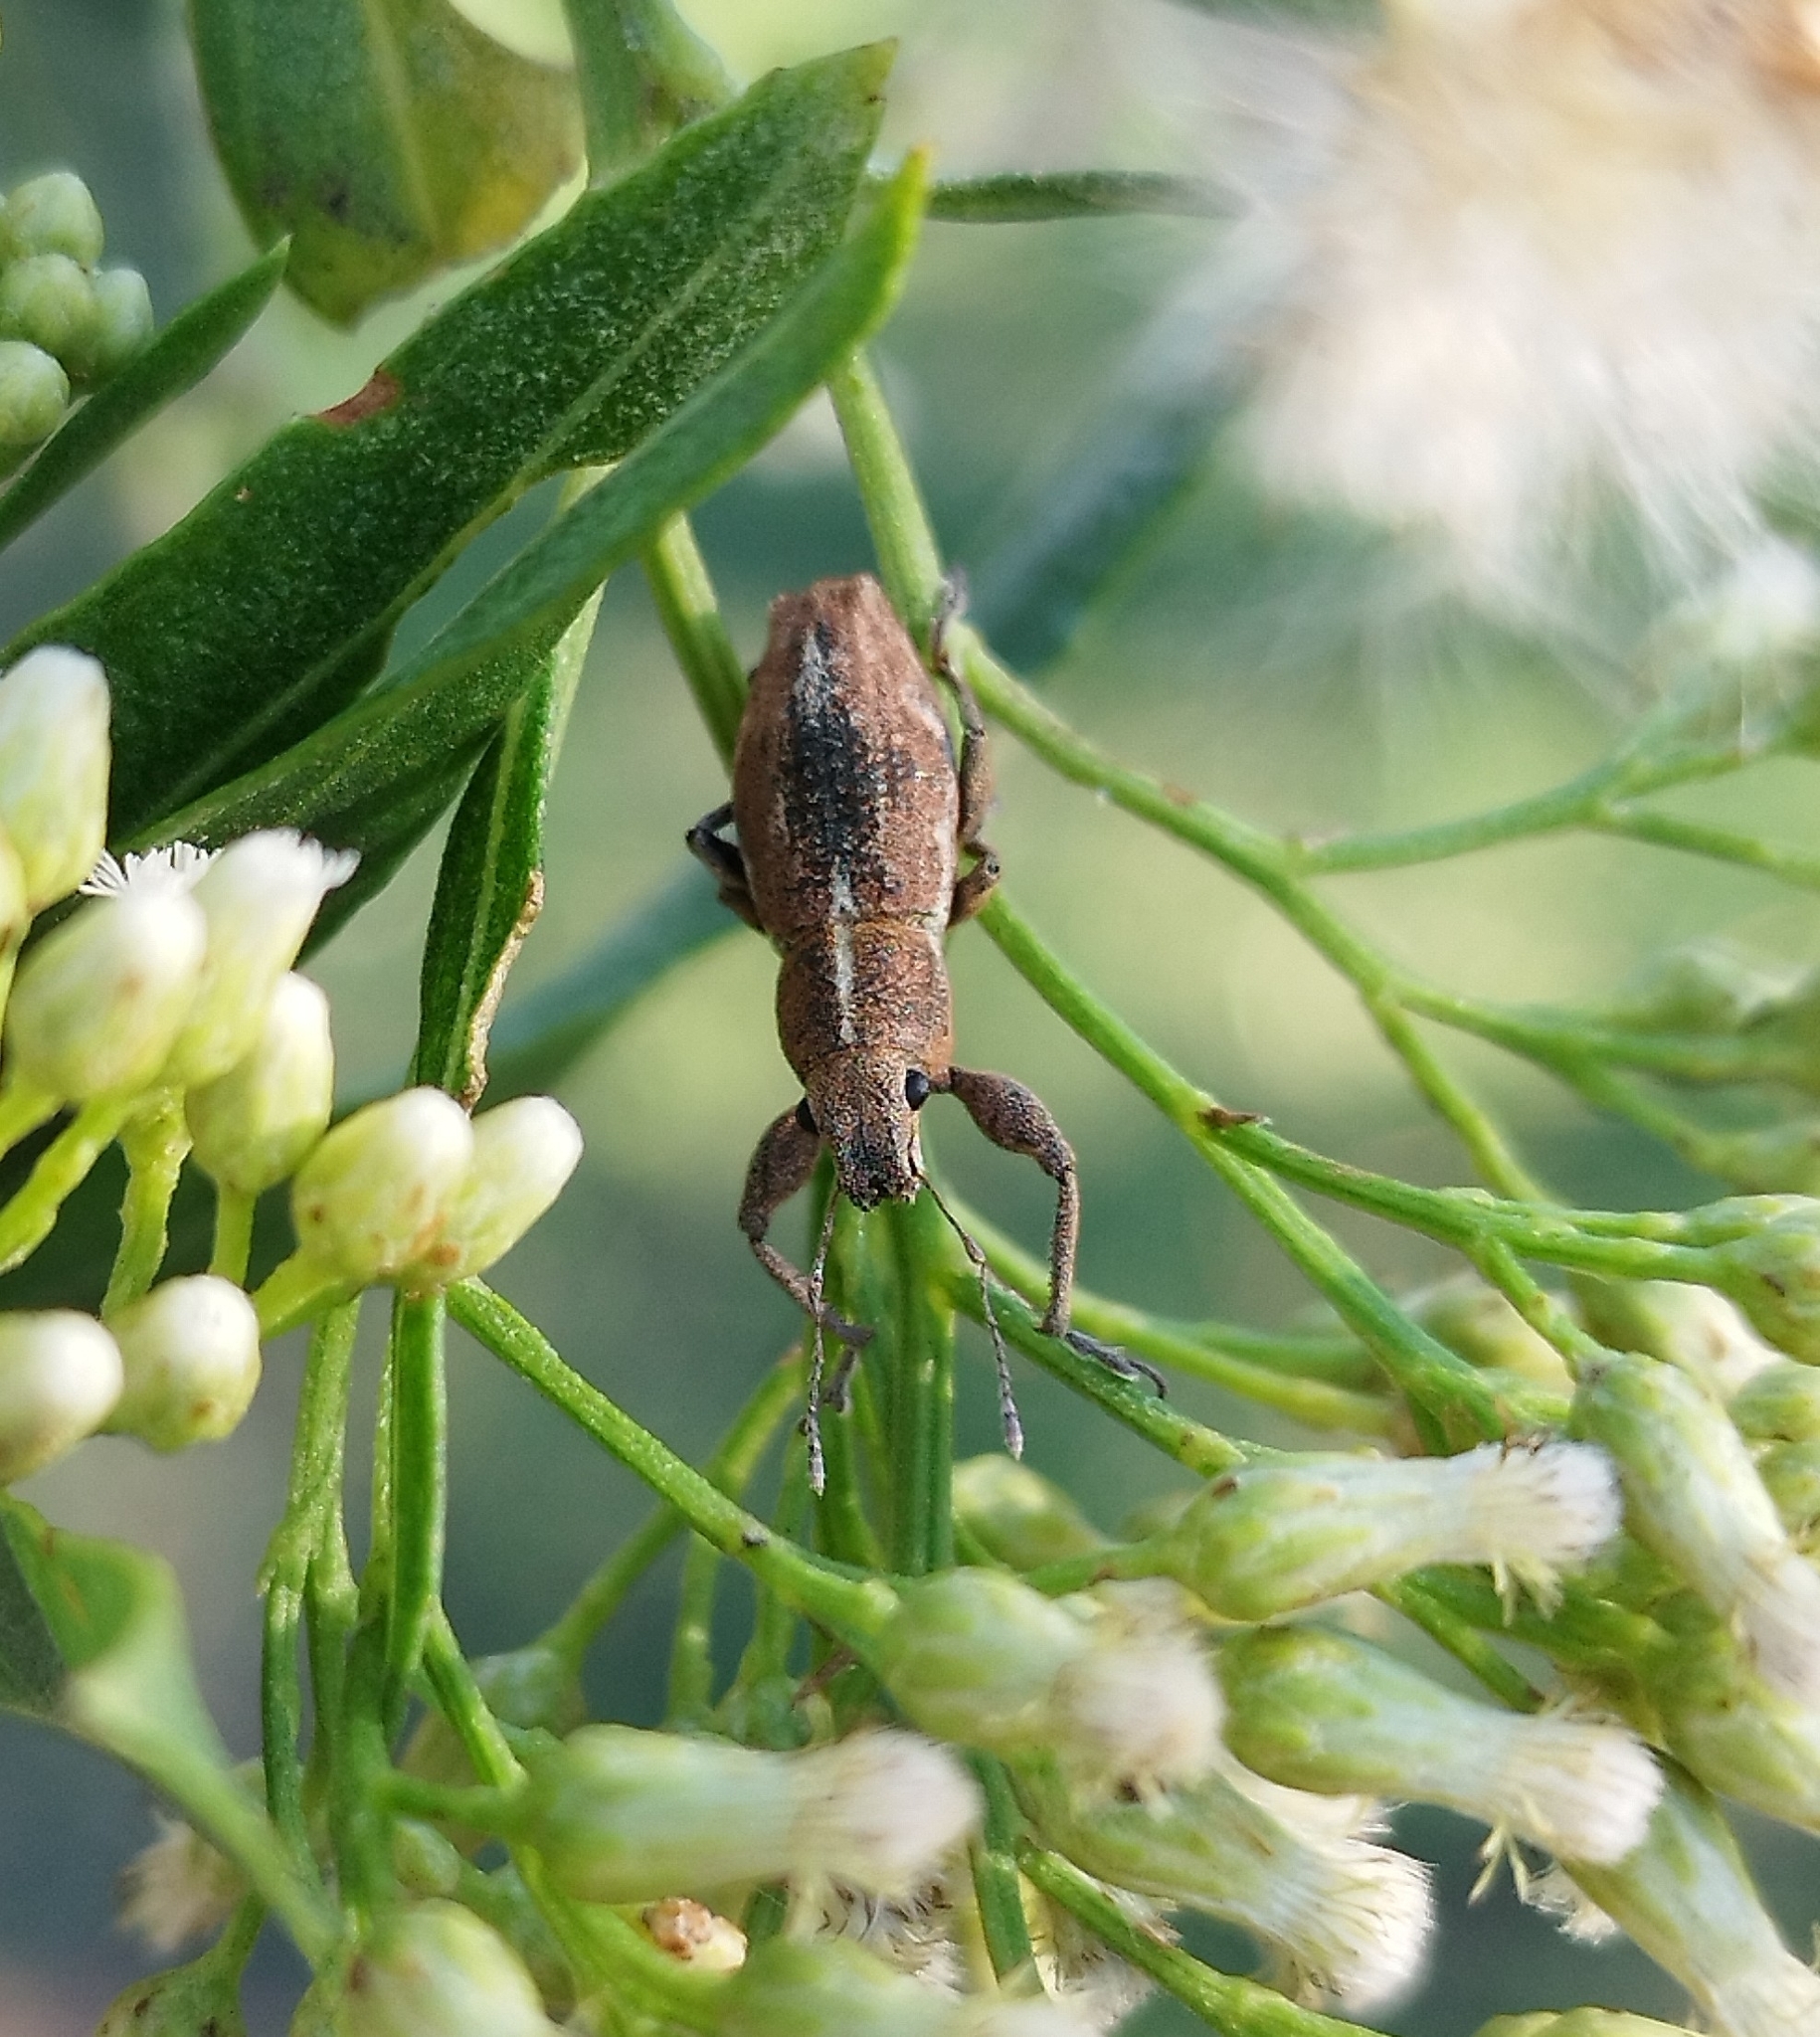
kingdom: Animalia
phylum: Arthropoda
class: Insecta
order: Coleoptera
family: Curculionidae
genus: Naupactus
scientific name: Naupactus dissimulator
